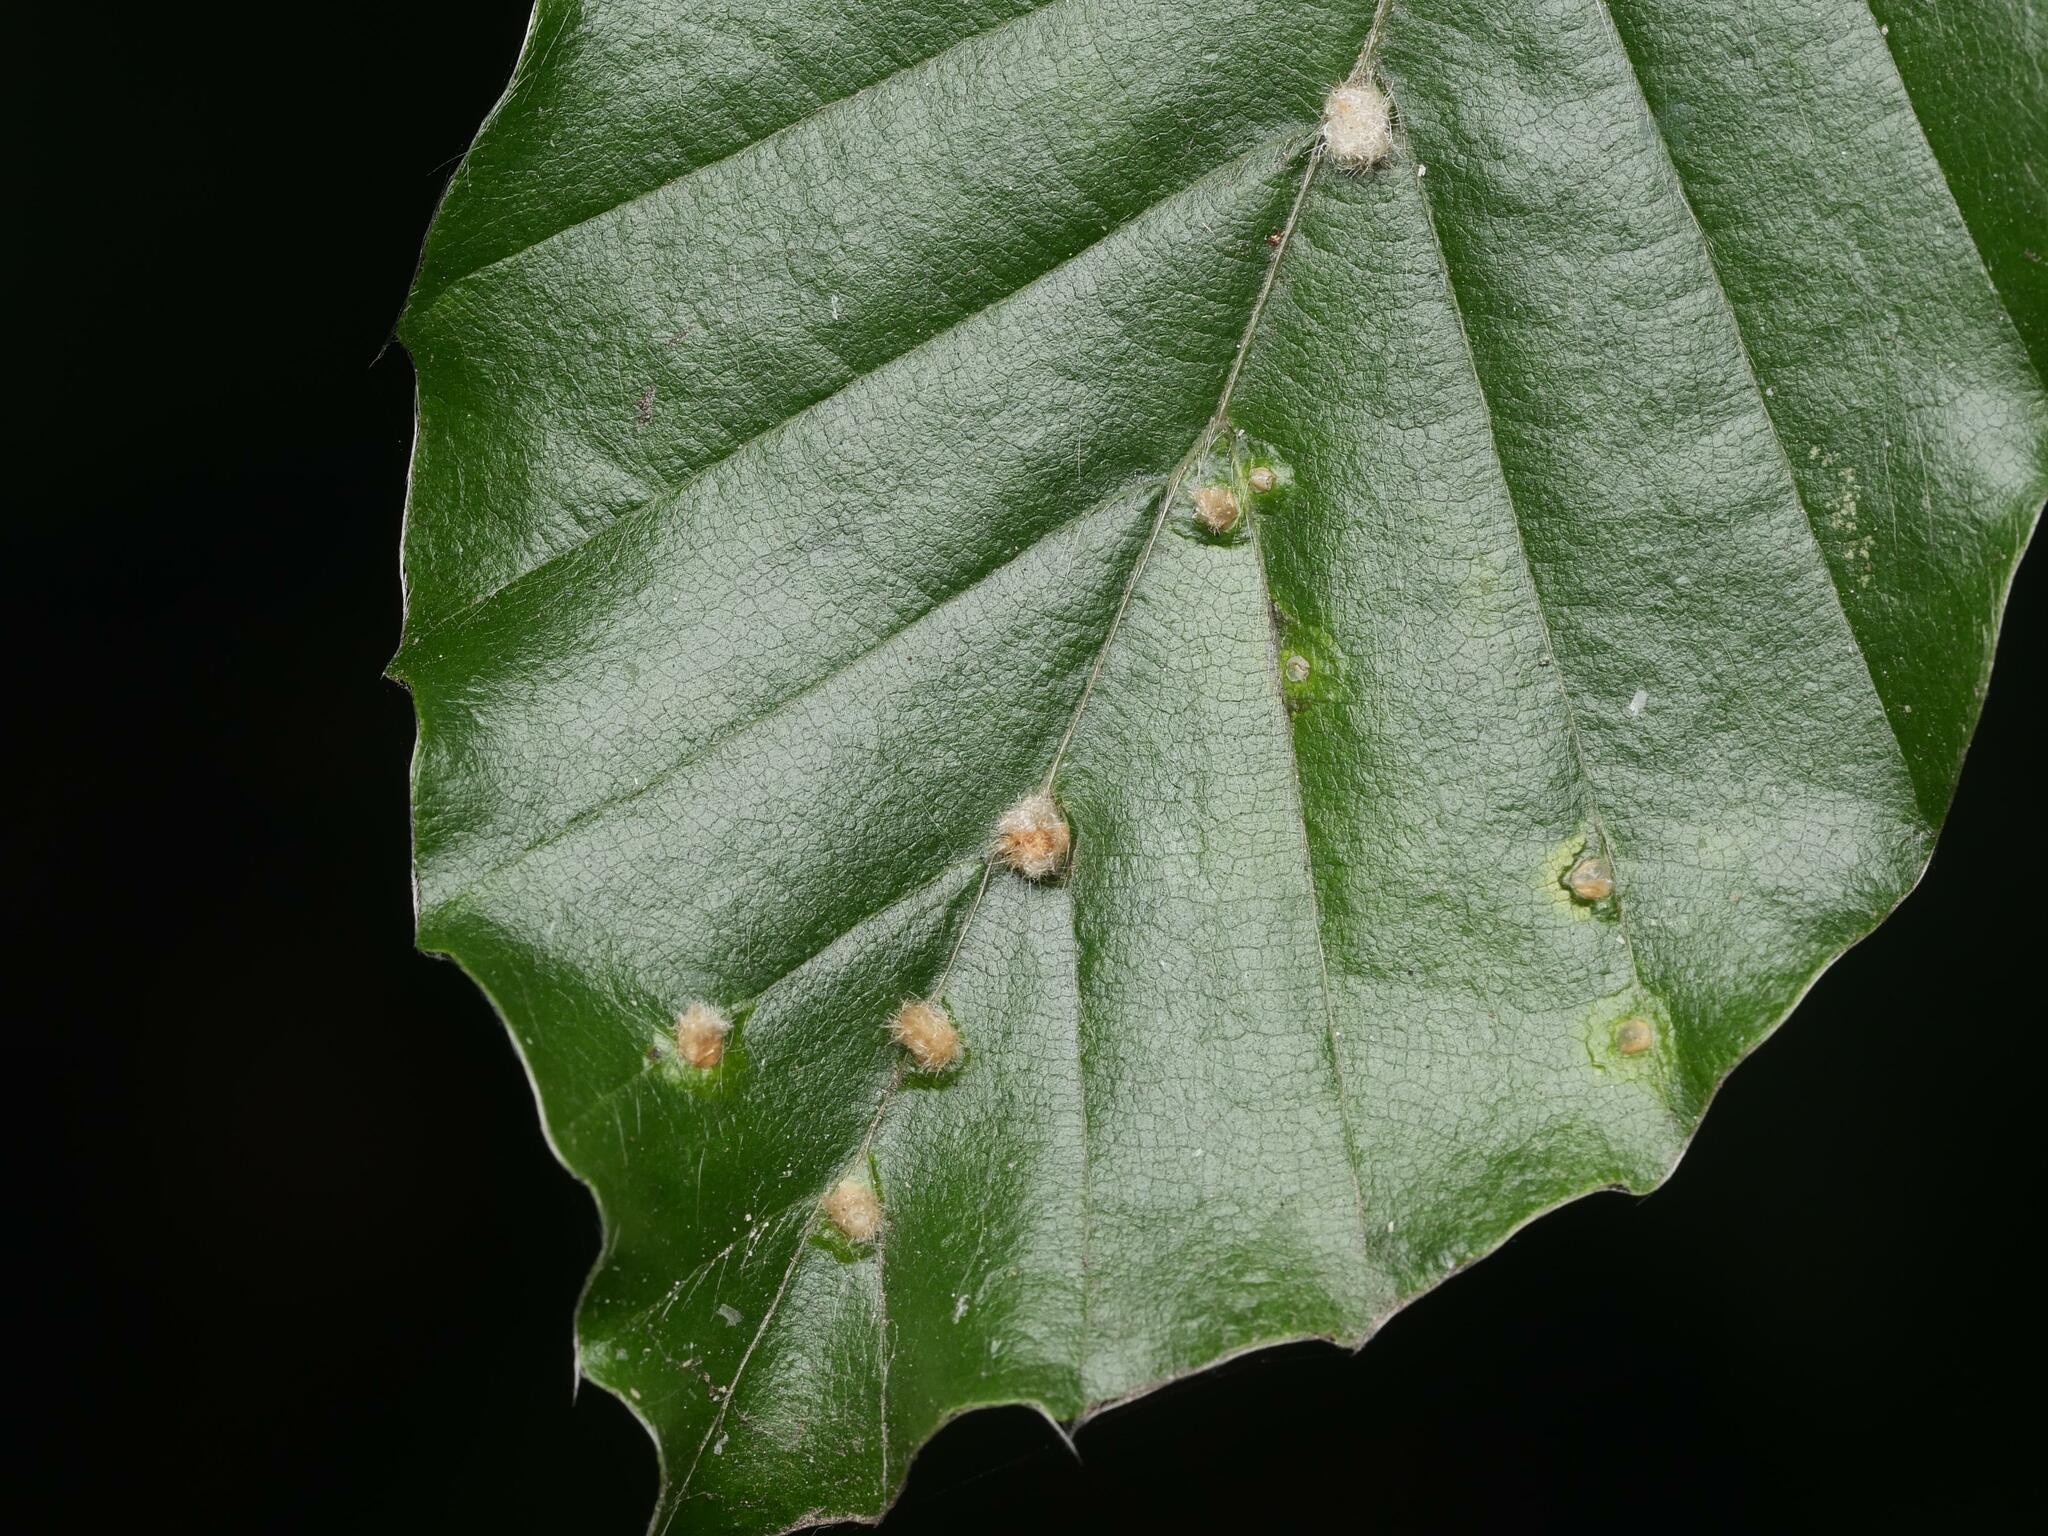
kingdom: Animalia
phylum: Arthropoda
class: Insecta
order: Diptera
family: Cecidomyiidae
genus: Hartigiola
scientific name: Hartigiola annulipes
